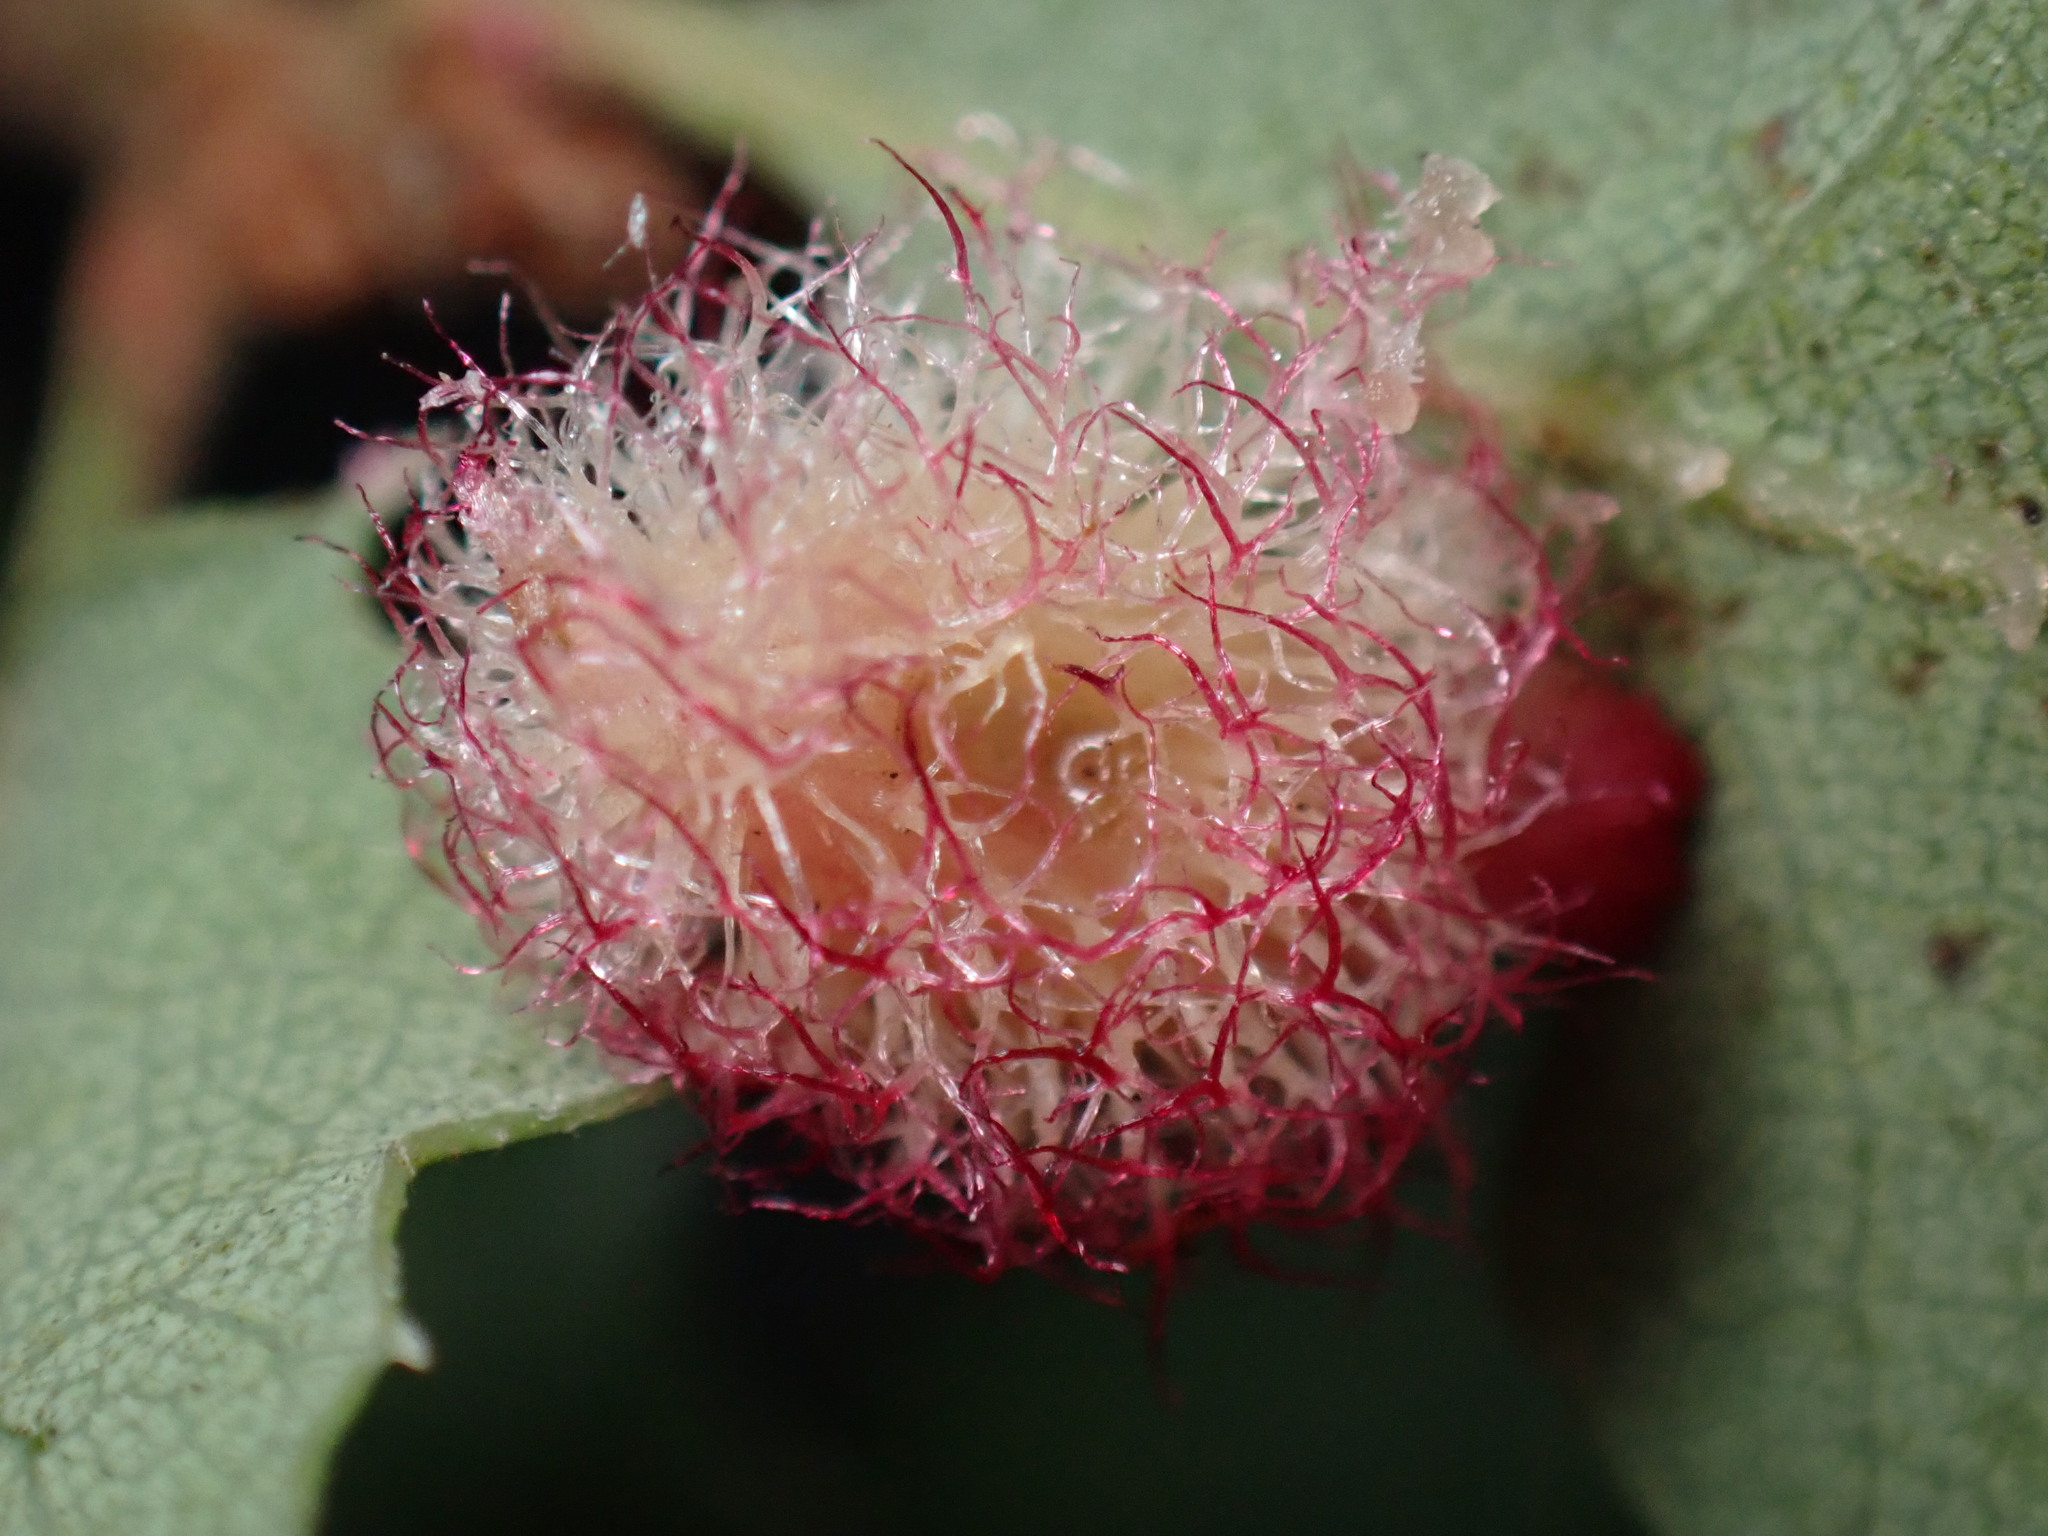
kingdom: Animalia
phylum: Arthropoda
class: Insecta
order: Hymenoptera
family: Cynipidae
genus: Andricus
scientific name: Andricus
